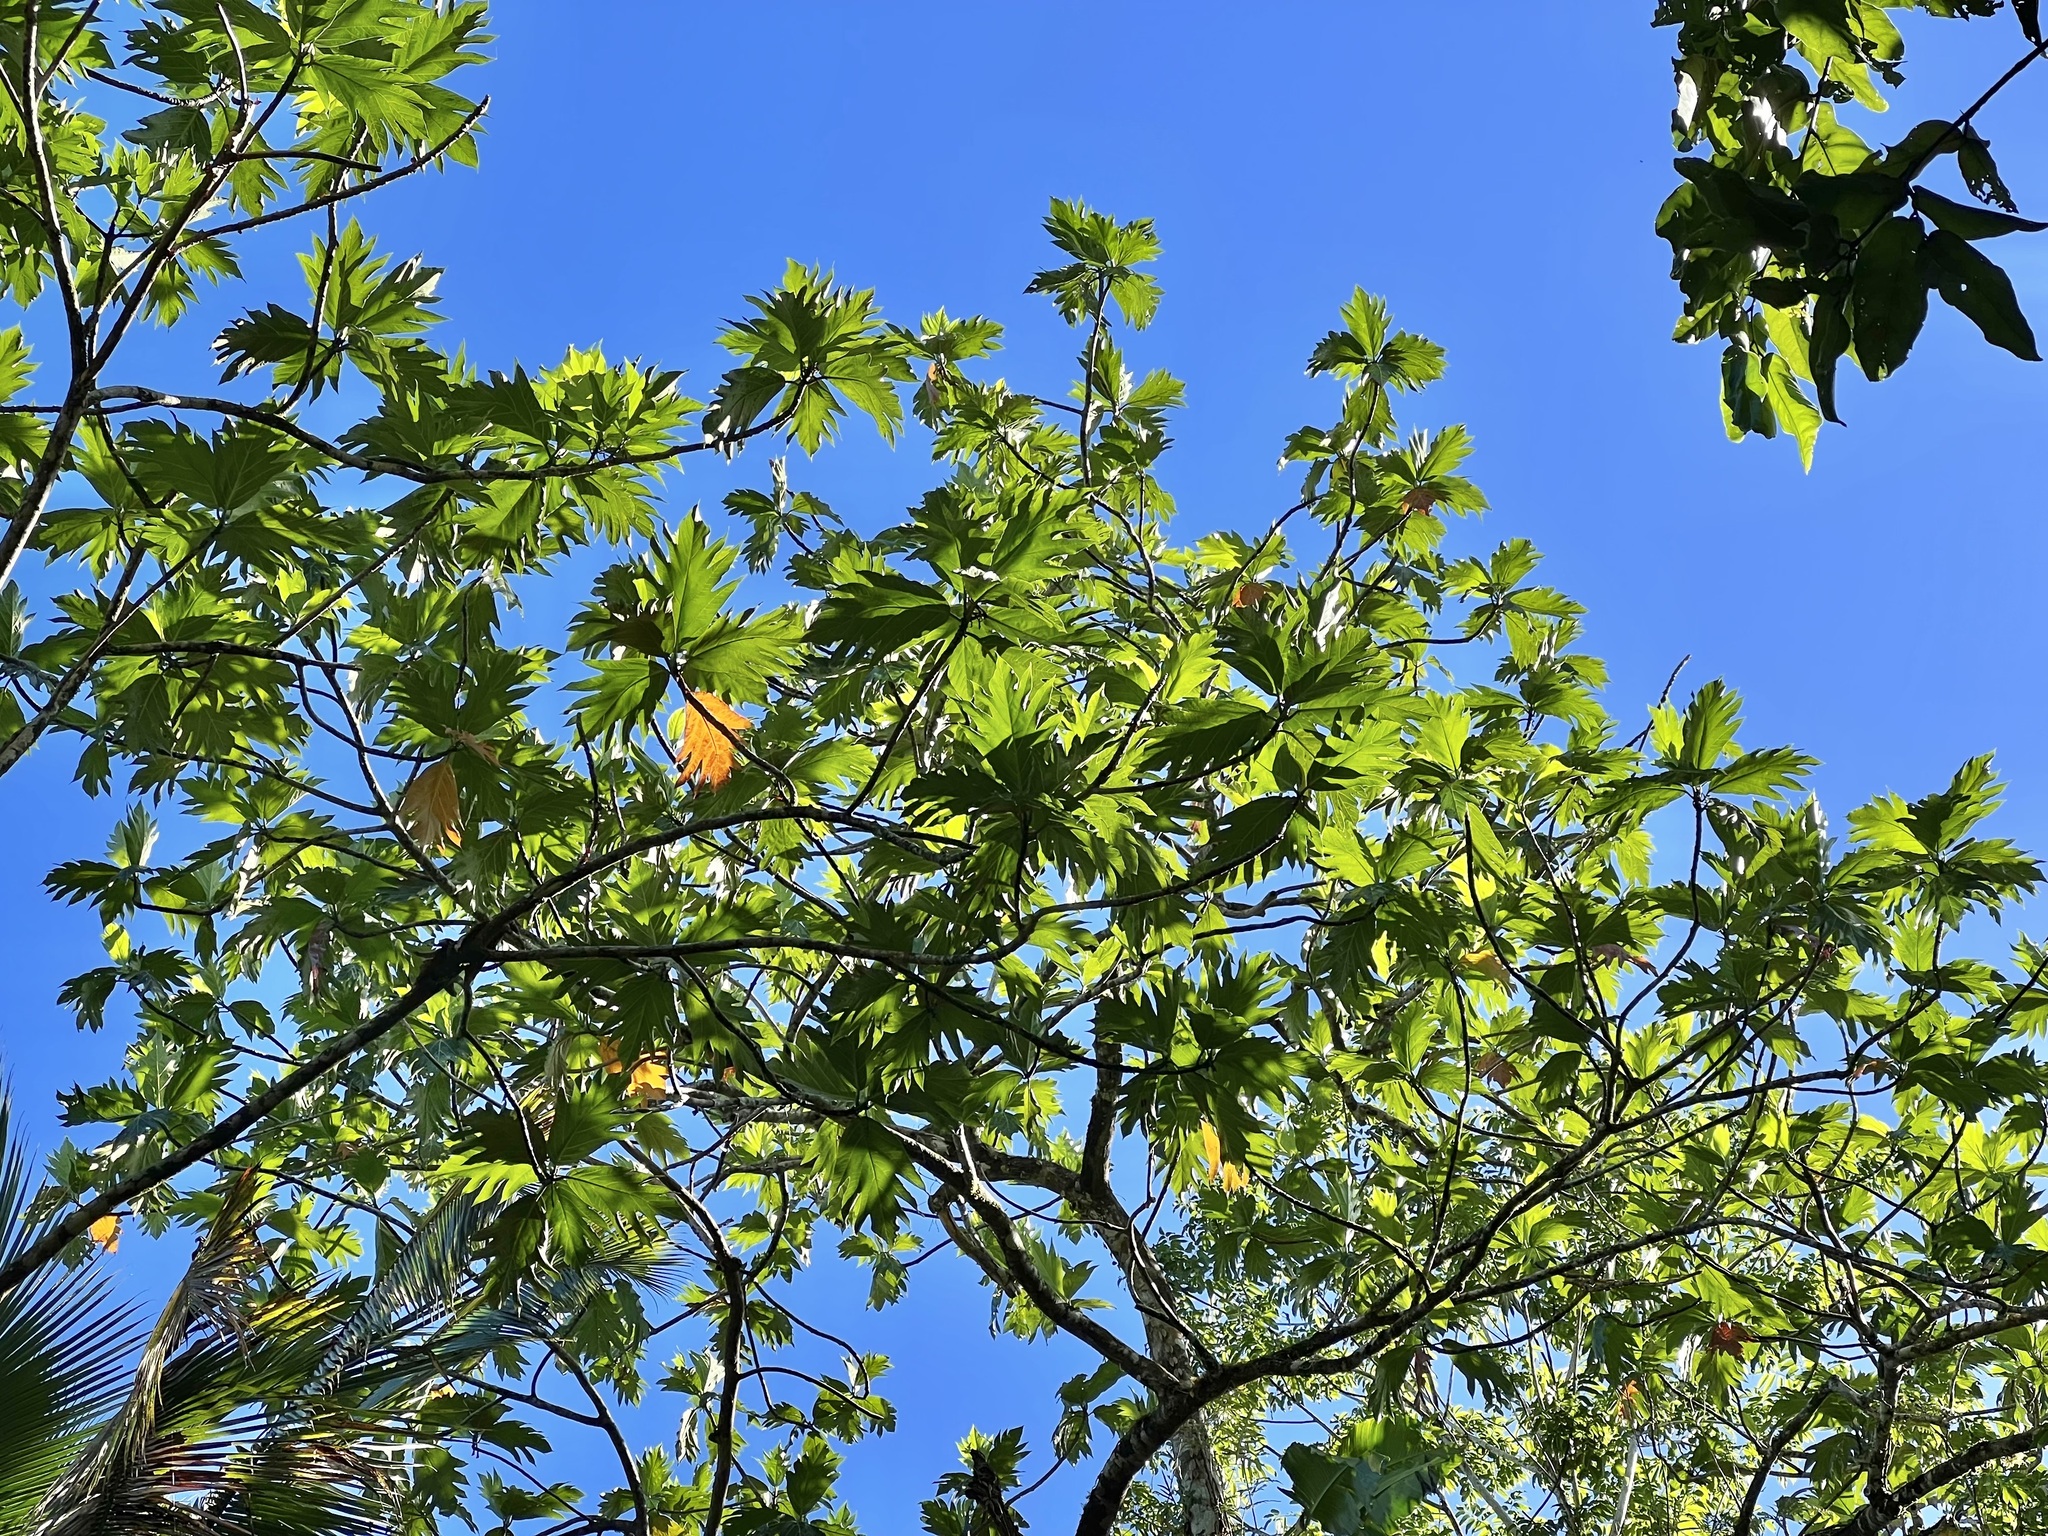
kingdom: Plantae
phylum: Tracheophyta
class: Magnoliopsida
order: Rosales
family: Moraceae
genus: Artocarpus
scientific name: Artocarpus altilis
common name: Breadfruit
